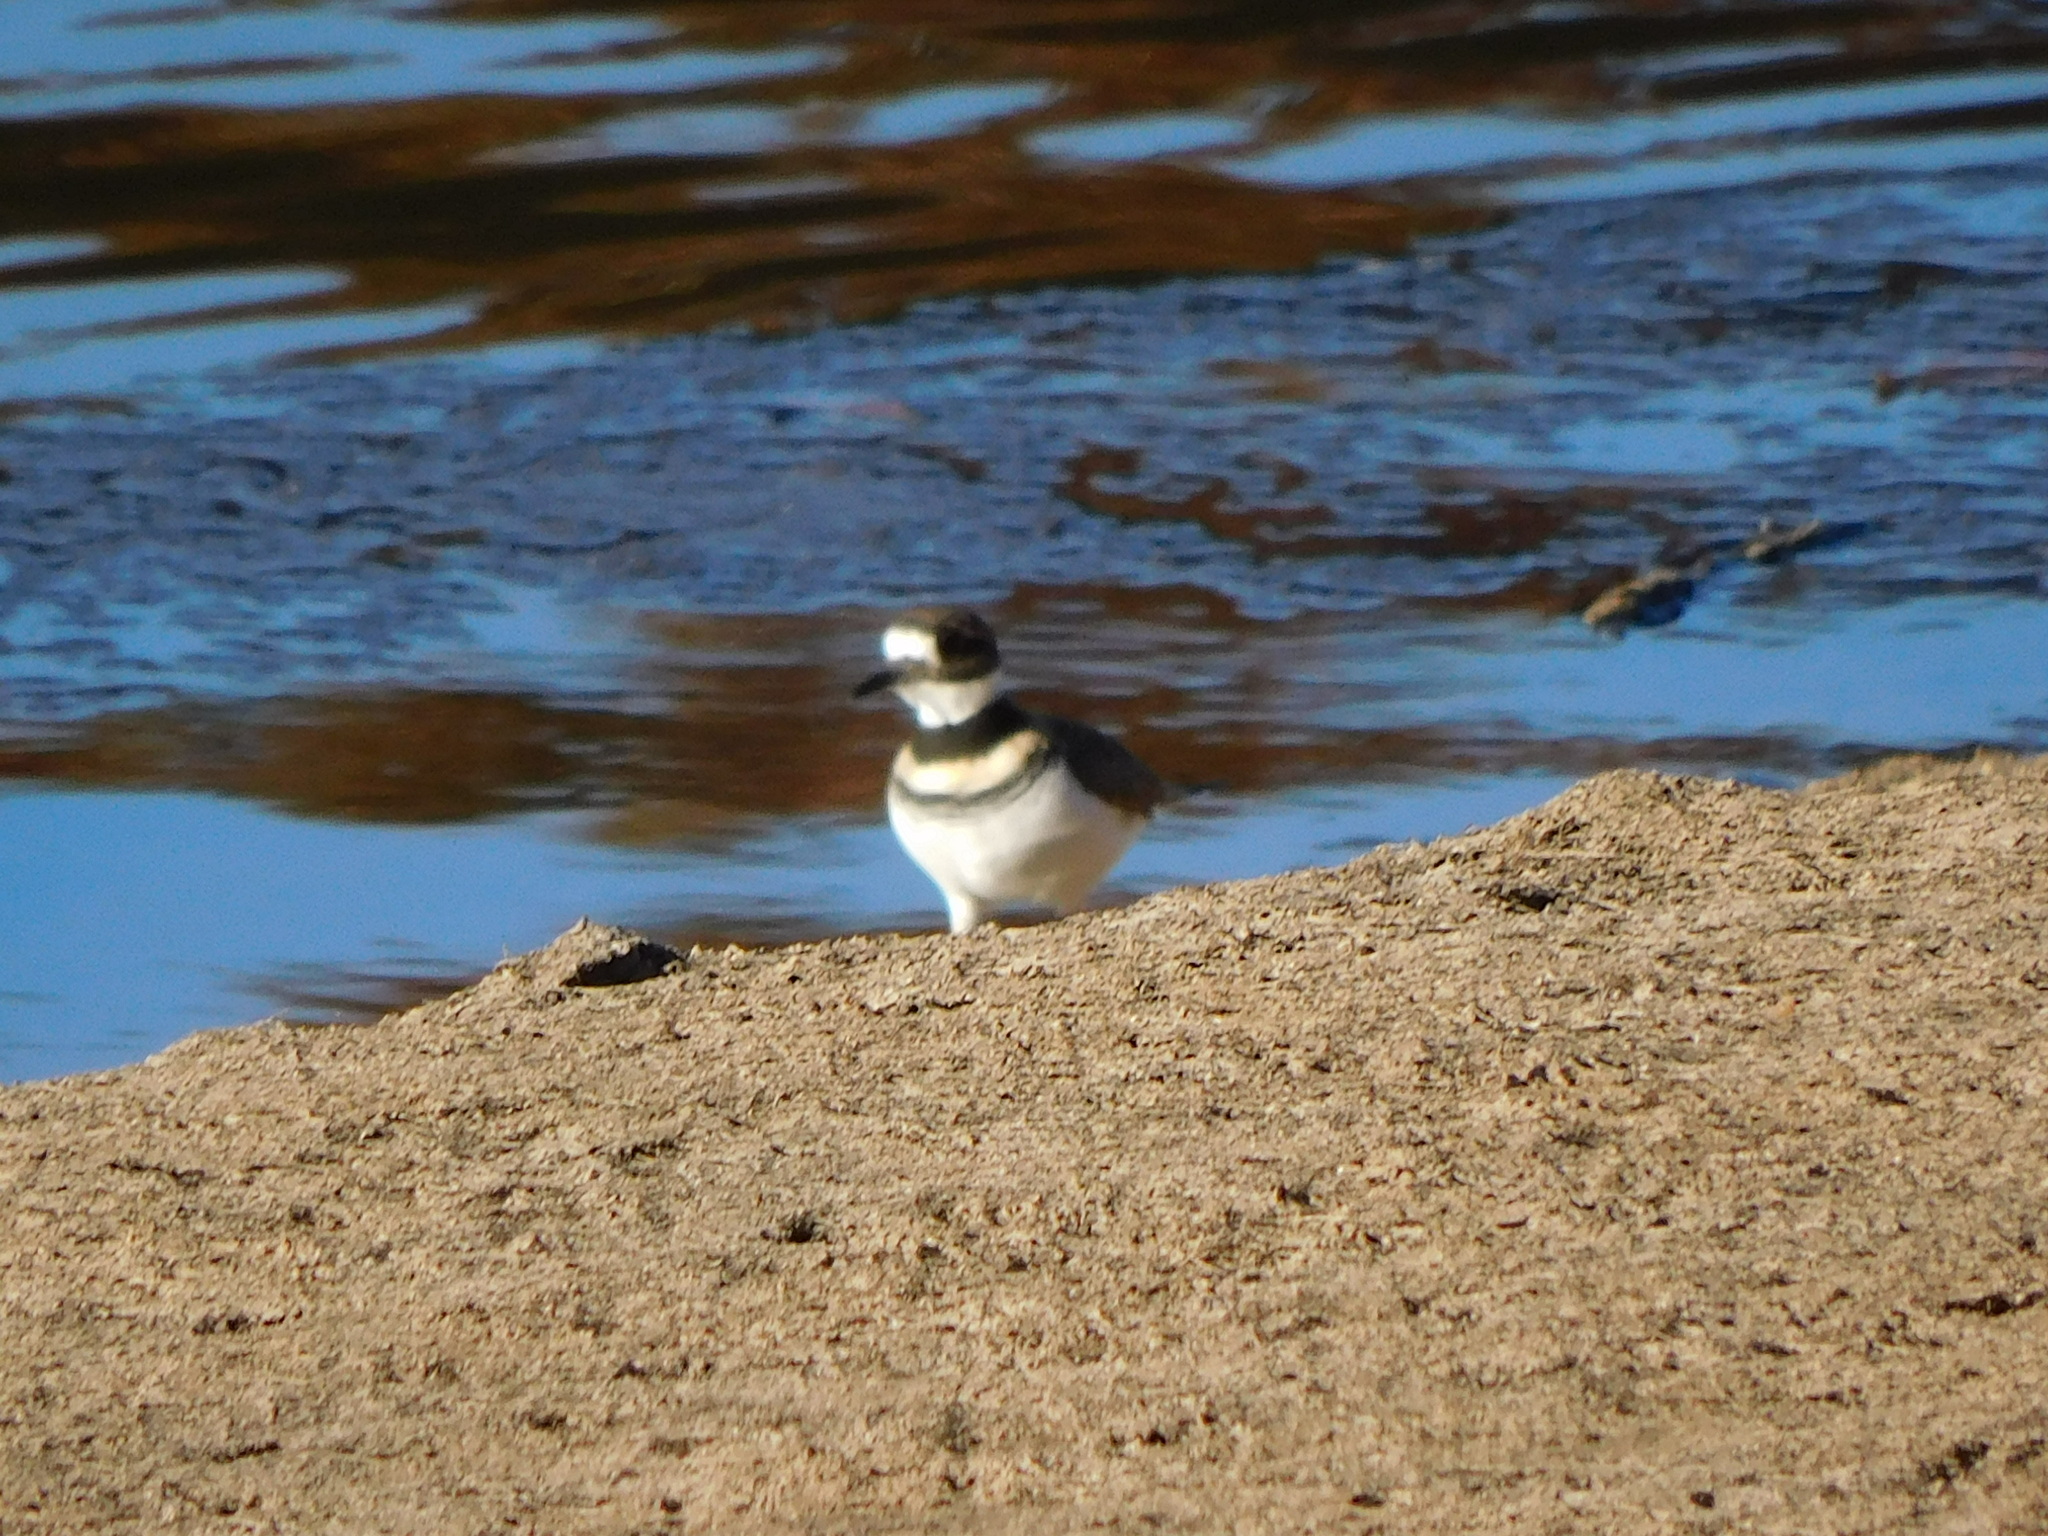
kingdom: Animalia
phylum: Chordata
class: Aves
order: Charadriiformes
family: Charadriidae
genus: Charadrius
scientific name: Charadrius vociferus
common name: Killdeer
